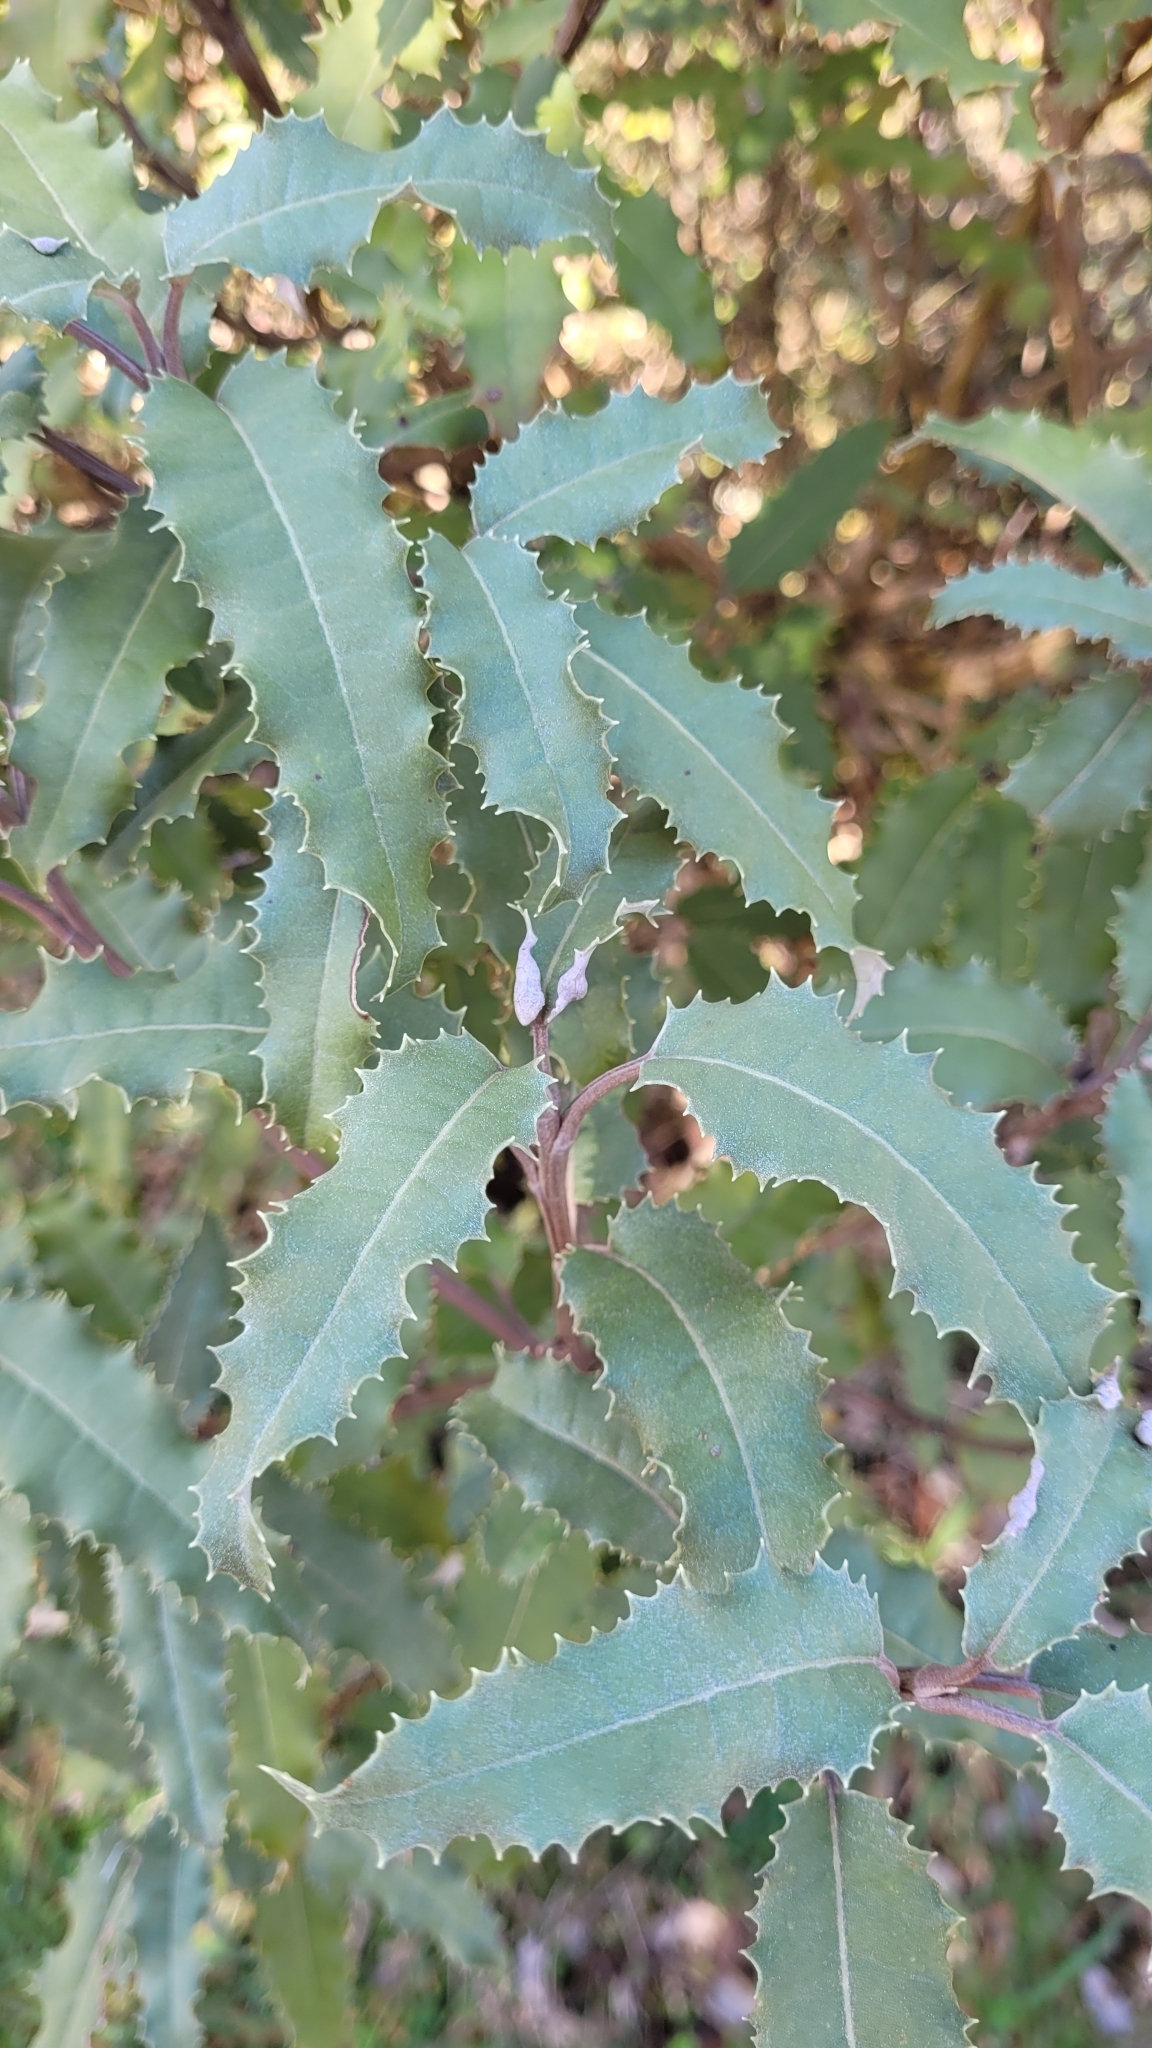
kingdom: Plantae
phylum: Tracheophyta
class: Magnoliopsida
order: Asterales
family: Asteraceae
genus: Olearia
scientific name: Olearia ilicifolia
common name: Maori-holly
